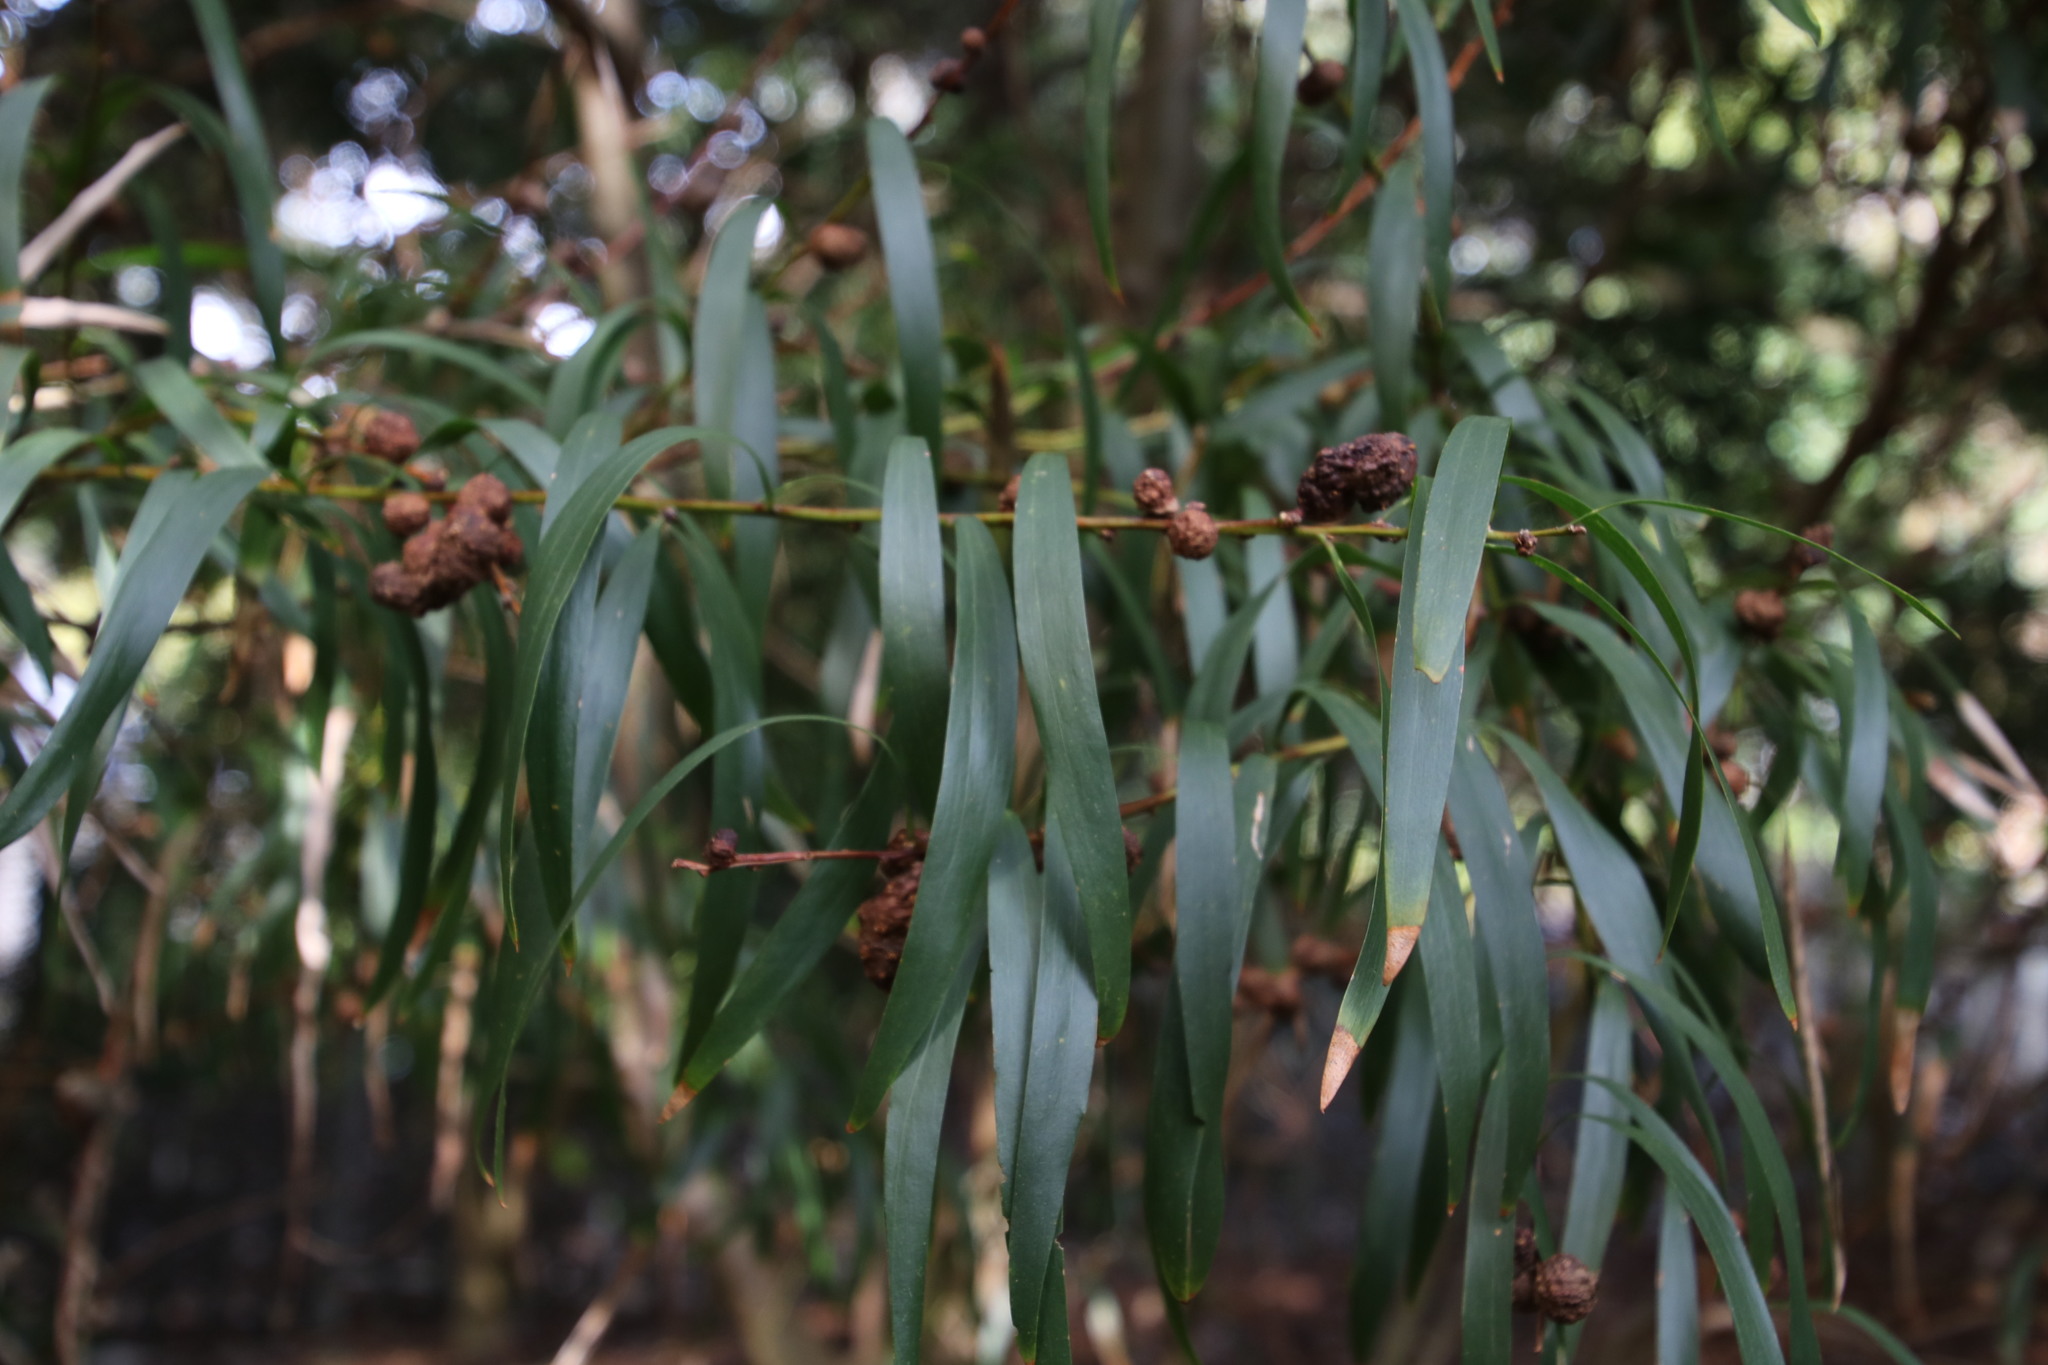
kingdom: Plantae
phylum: Tracheophyta
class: Magnoliopsida
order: Fabales
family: Fabaceae
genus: Acacia
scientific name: Acacia longifolia
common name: Sydney golden wattle
